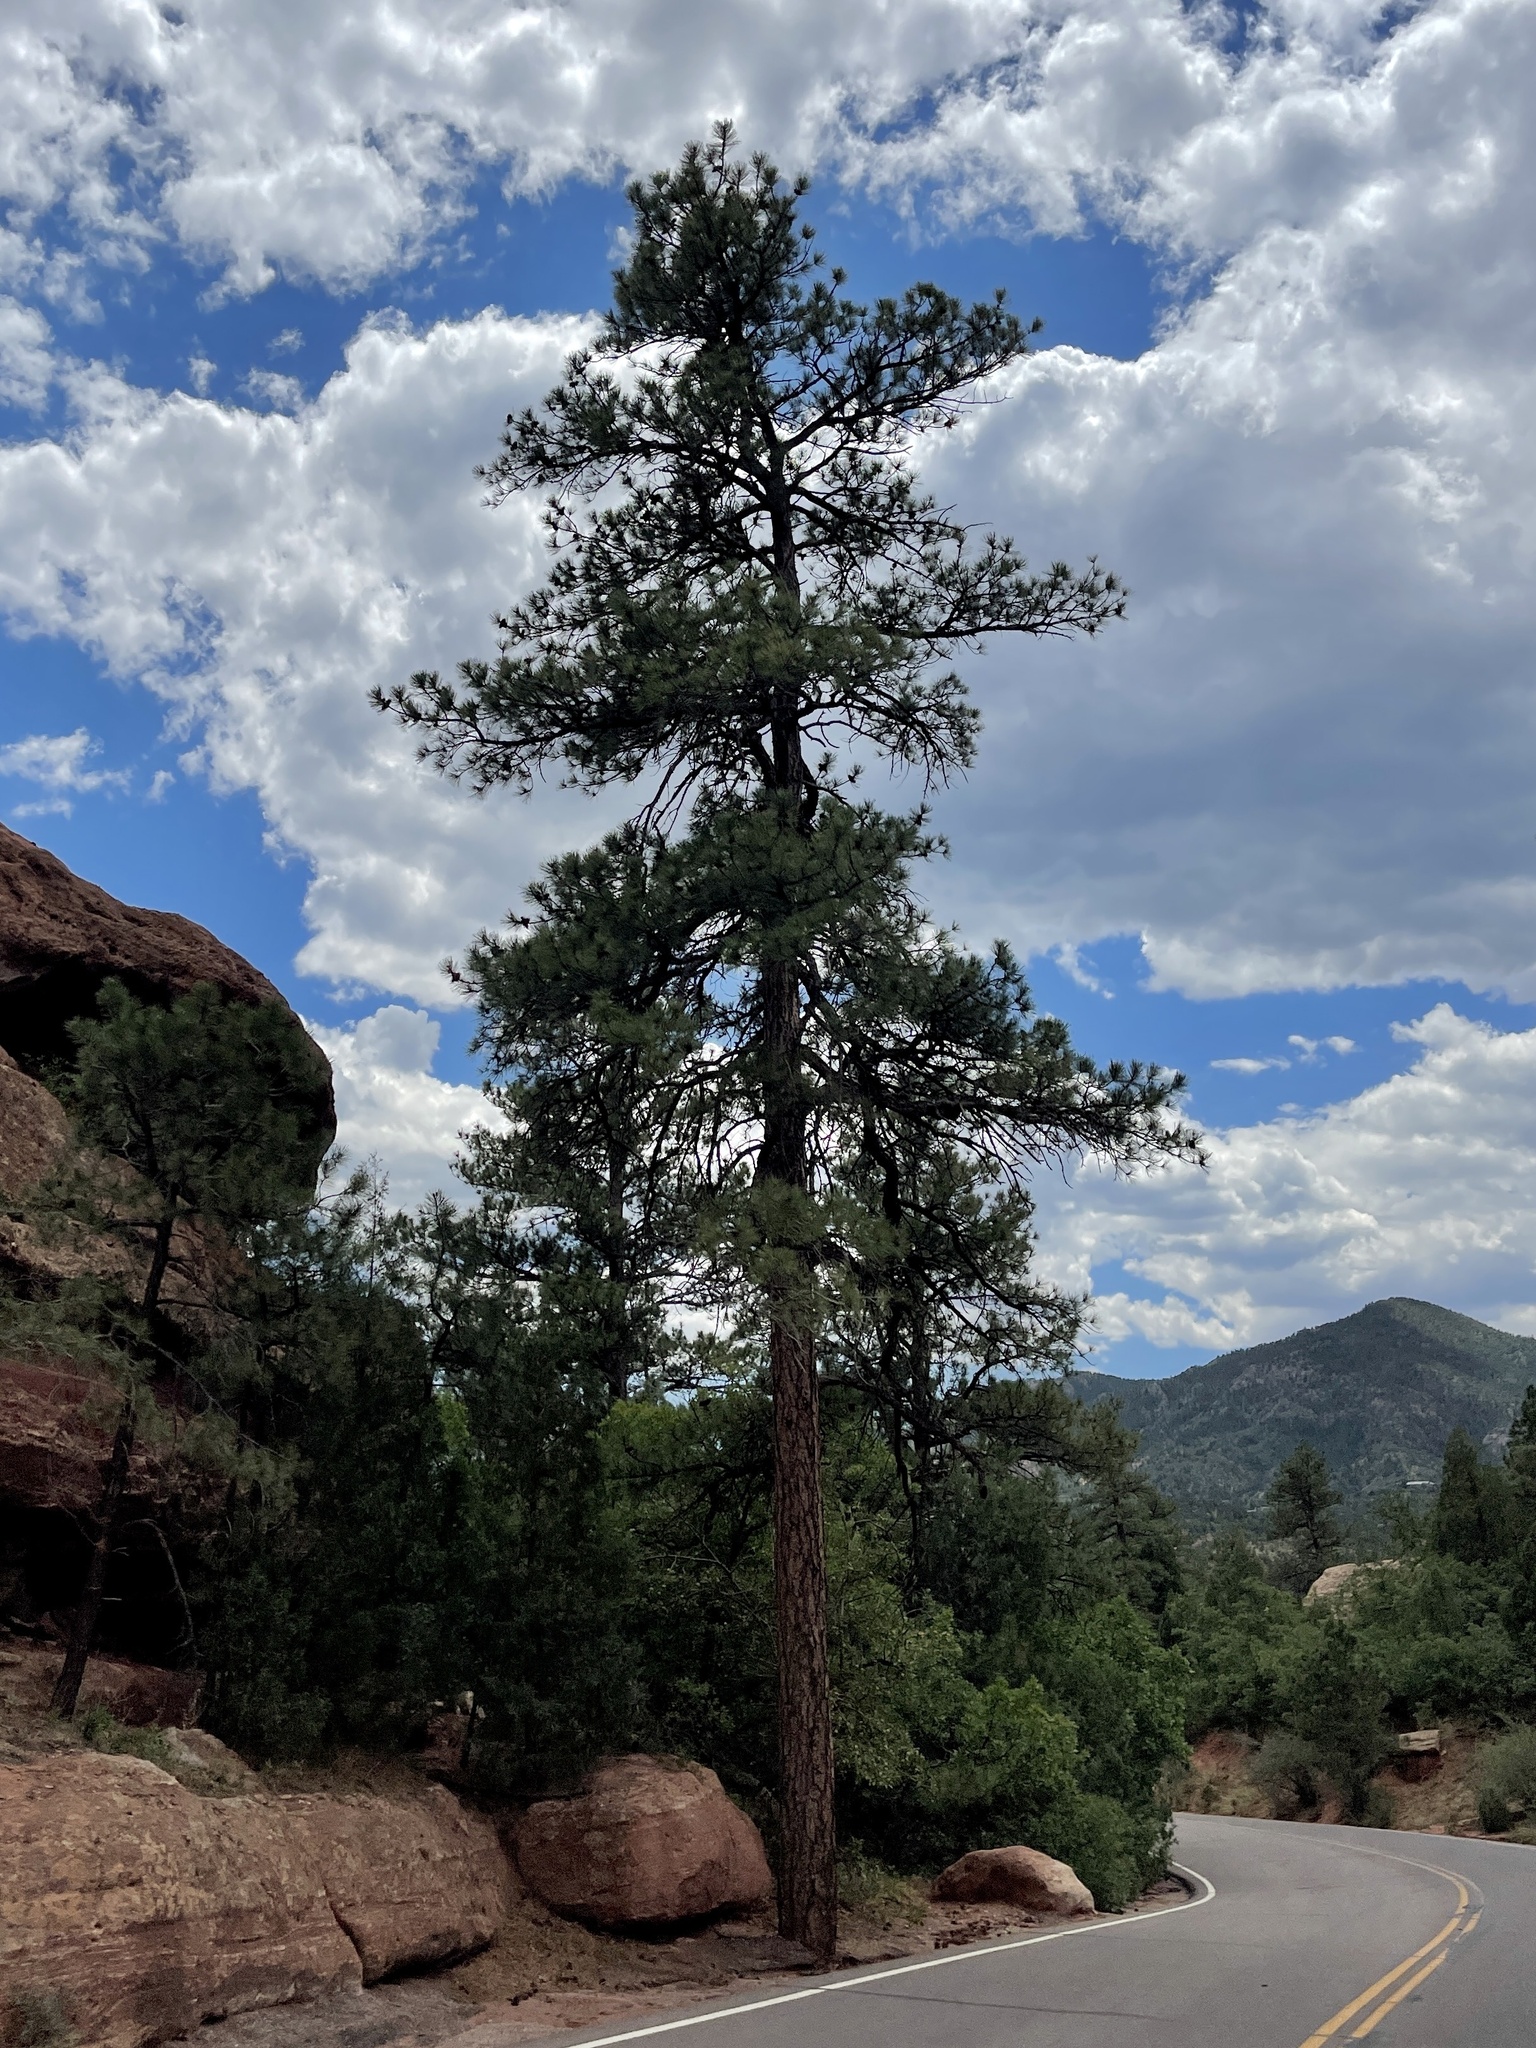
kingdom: Plantae
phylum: Tracheophyta
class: Pinopsida
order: Pinales
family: Pinaceae
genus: Pinus
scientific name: Pinus ponderosa
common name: Western yellow-pine
